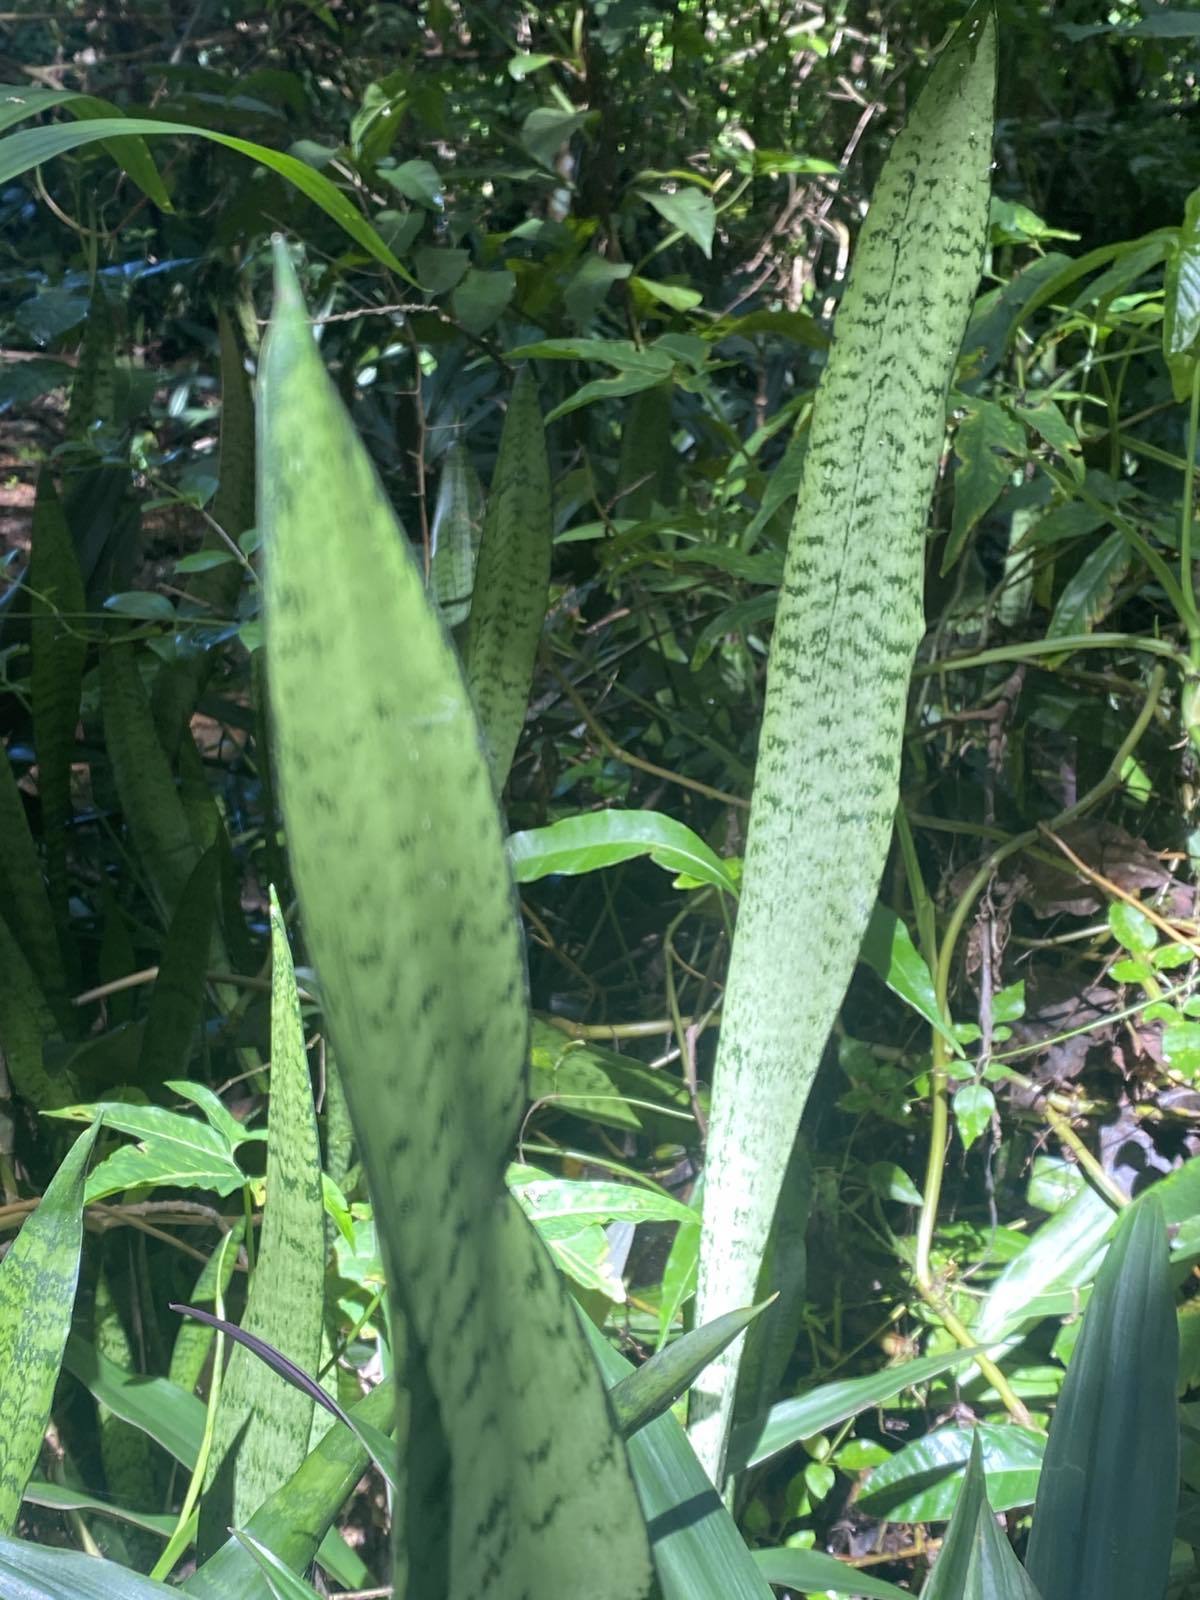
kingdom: Plantae
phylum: Tracheophyta
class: Liliopsida
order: Asparagales
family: Asparagaceae
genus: Dracaena
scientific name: Dracaena trifasciata
